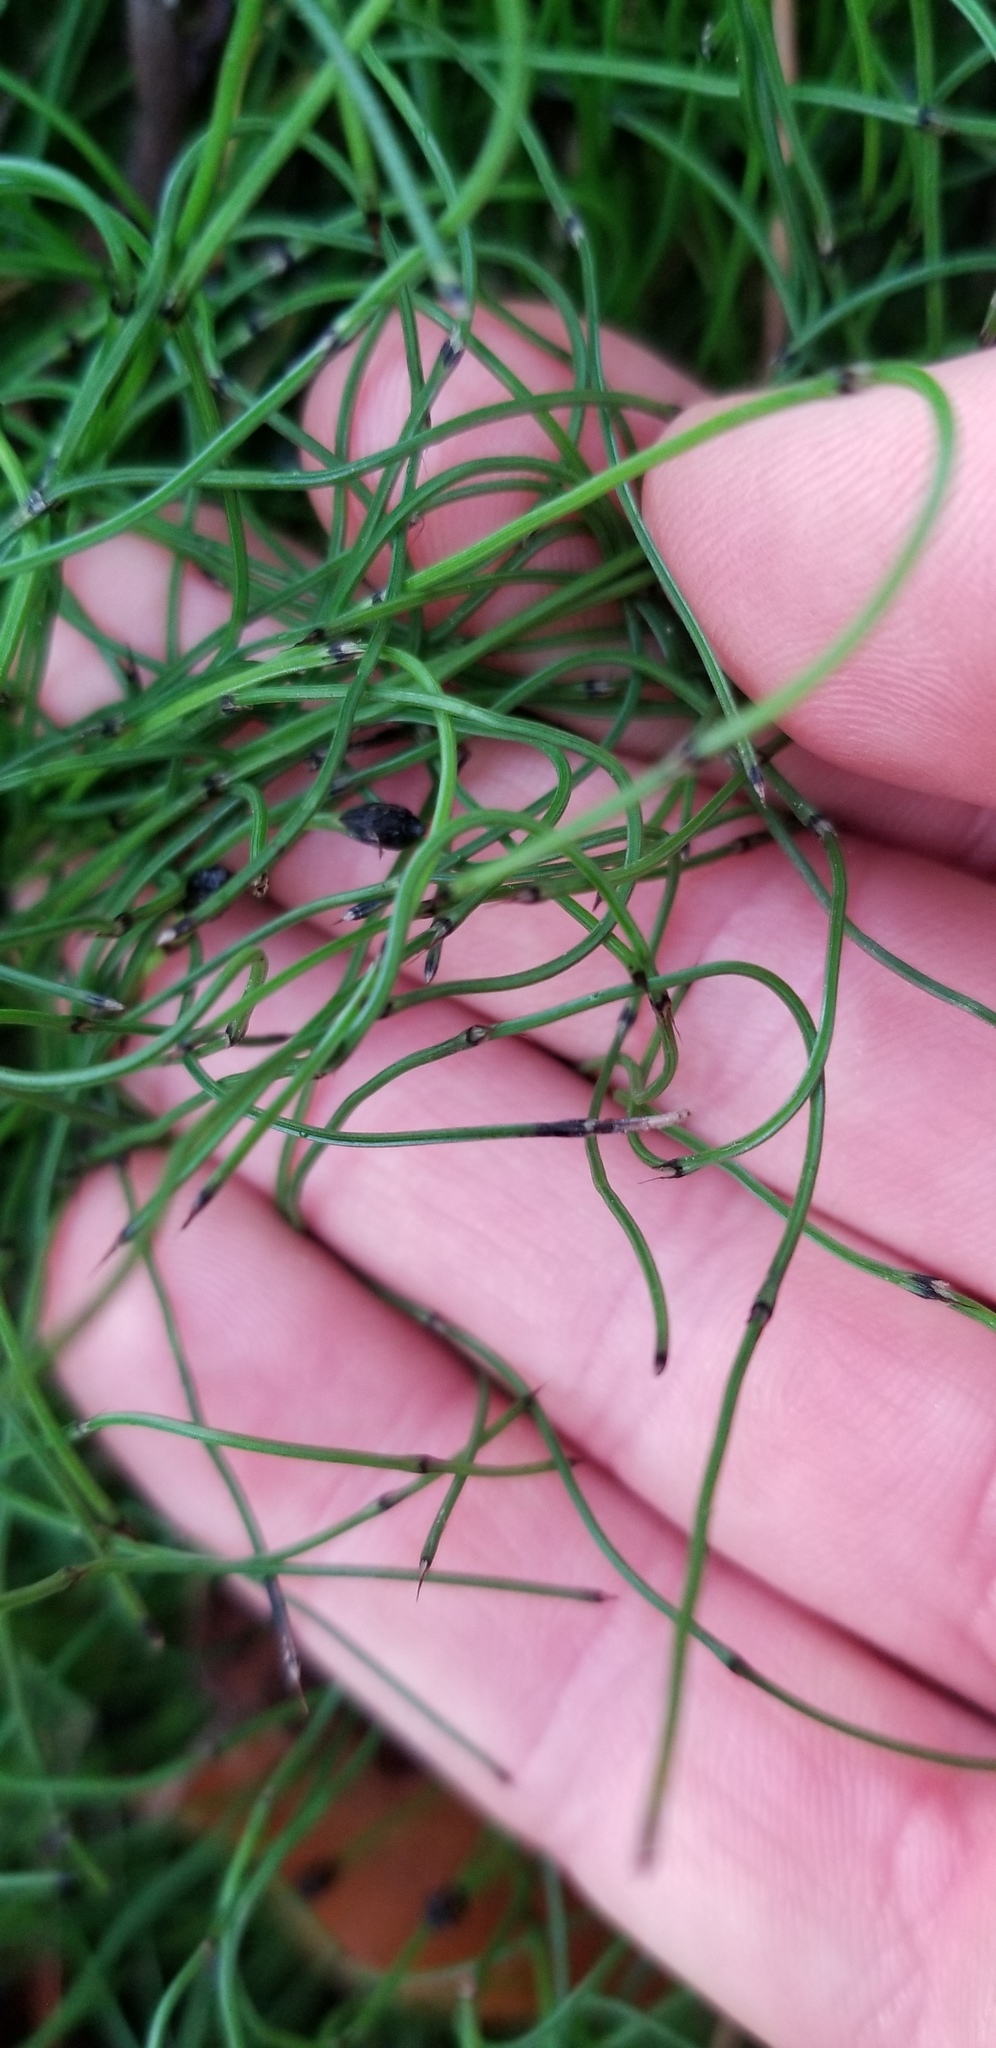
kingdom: Plantae
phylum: Tracheophyta
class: Polypodiopsida
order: Equisetales
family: Equisetaceae
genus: Equisetum
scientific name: Equisetum scirpoides
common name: Delicate horsetail
